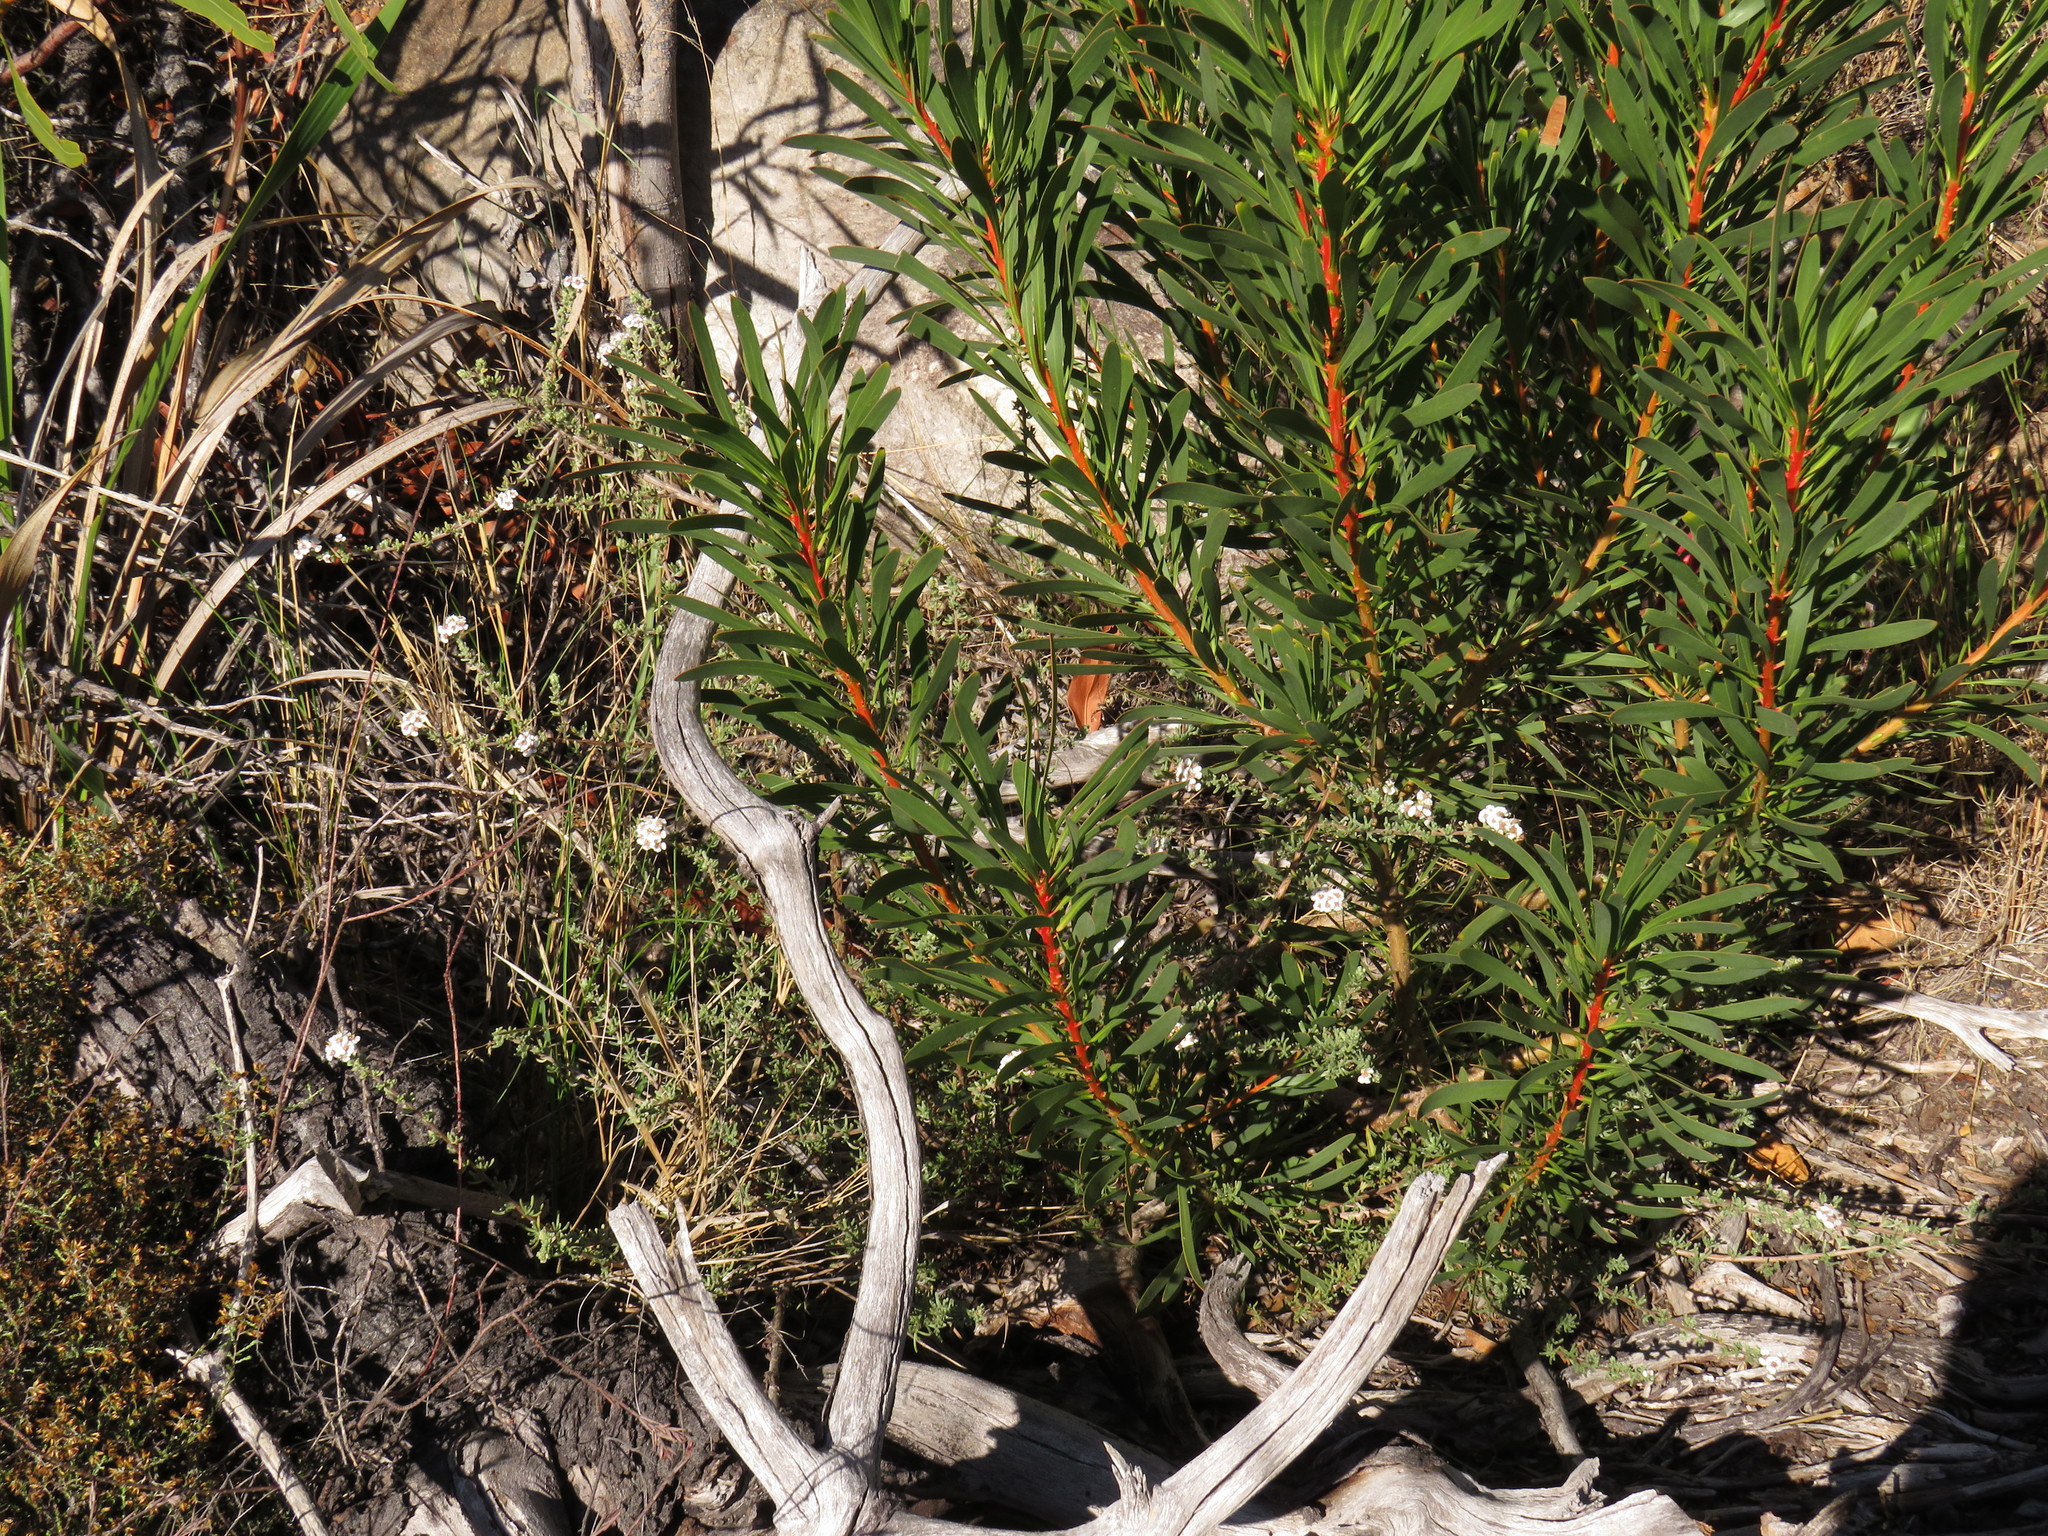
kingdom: Plantae
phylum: Tracheophyta
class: Magnoliopsida
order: Asterales
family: Asteraceae
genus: Eriocephalus
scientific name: Eriocephalus africanus
